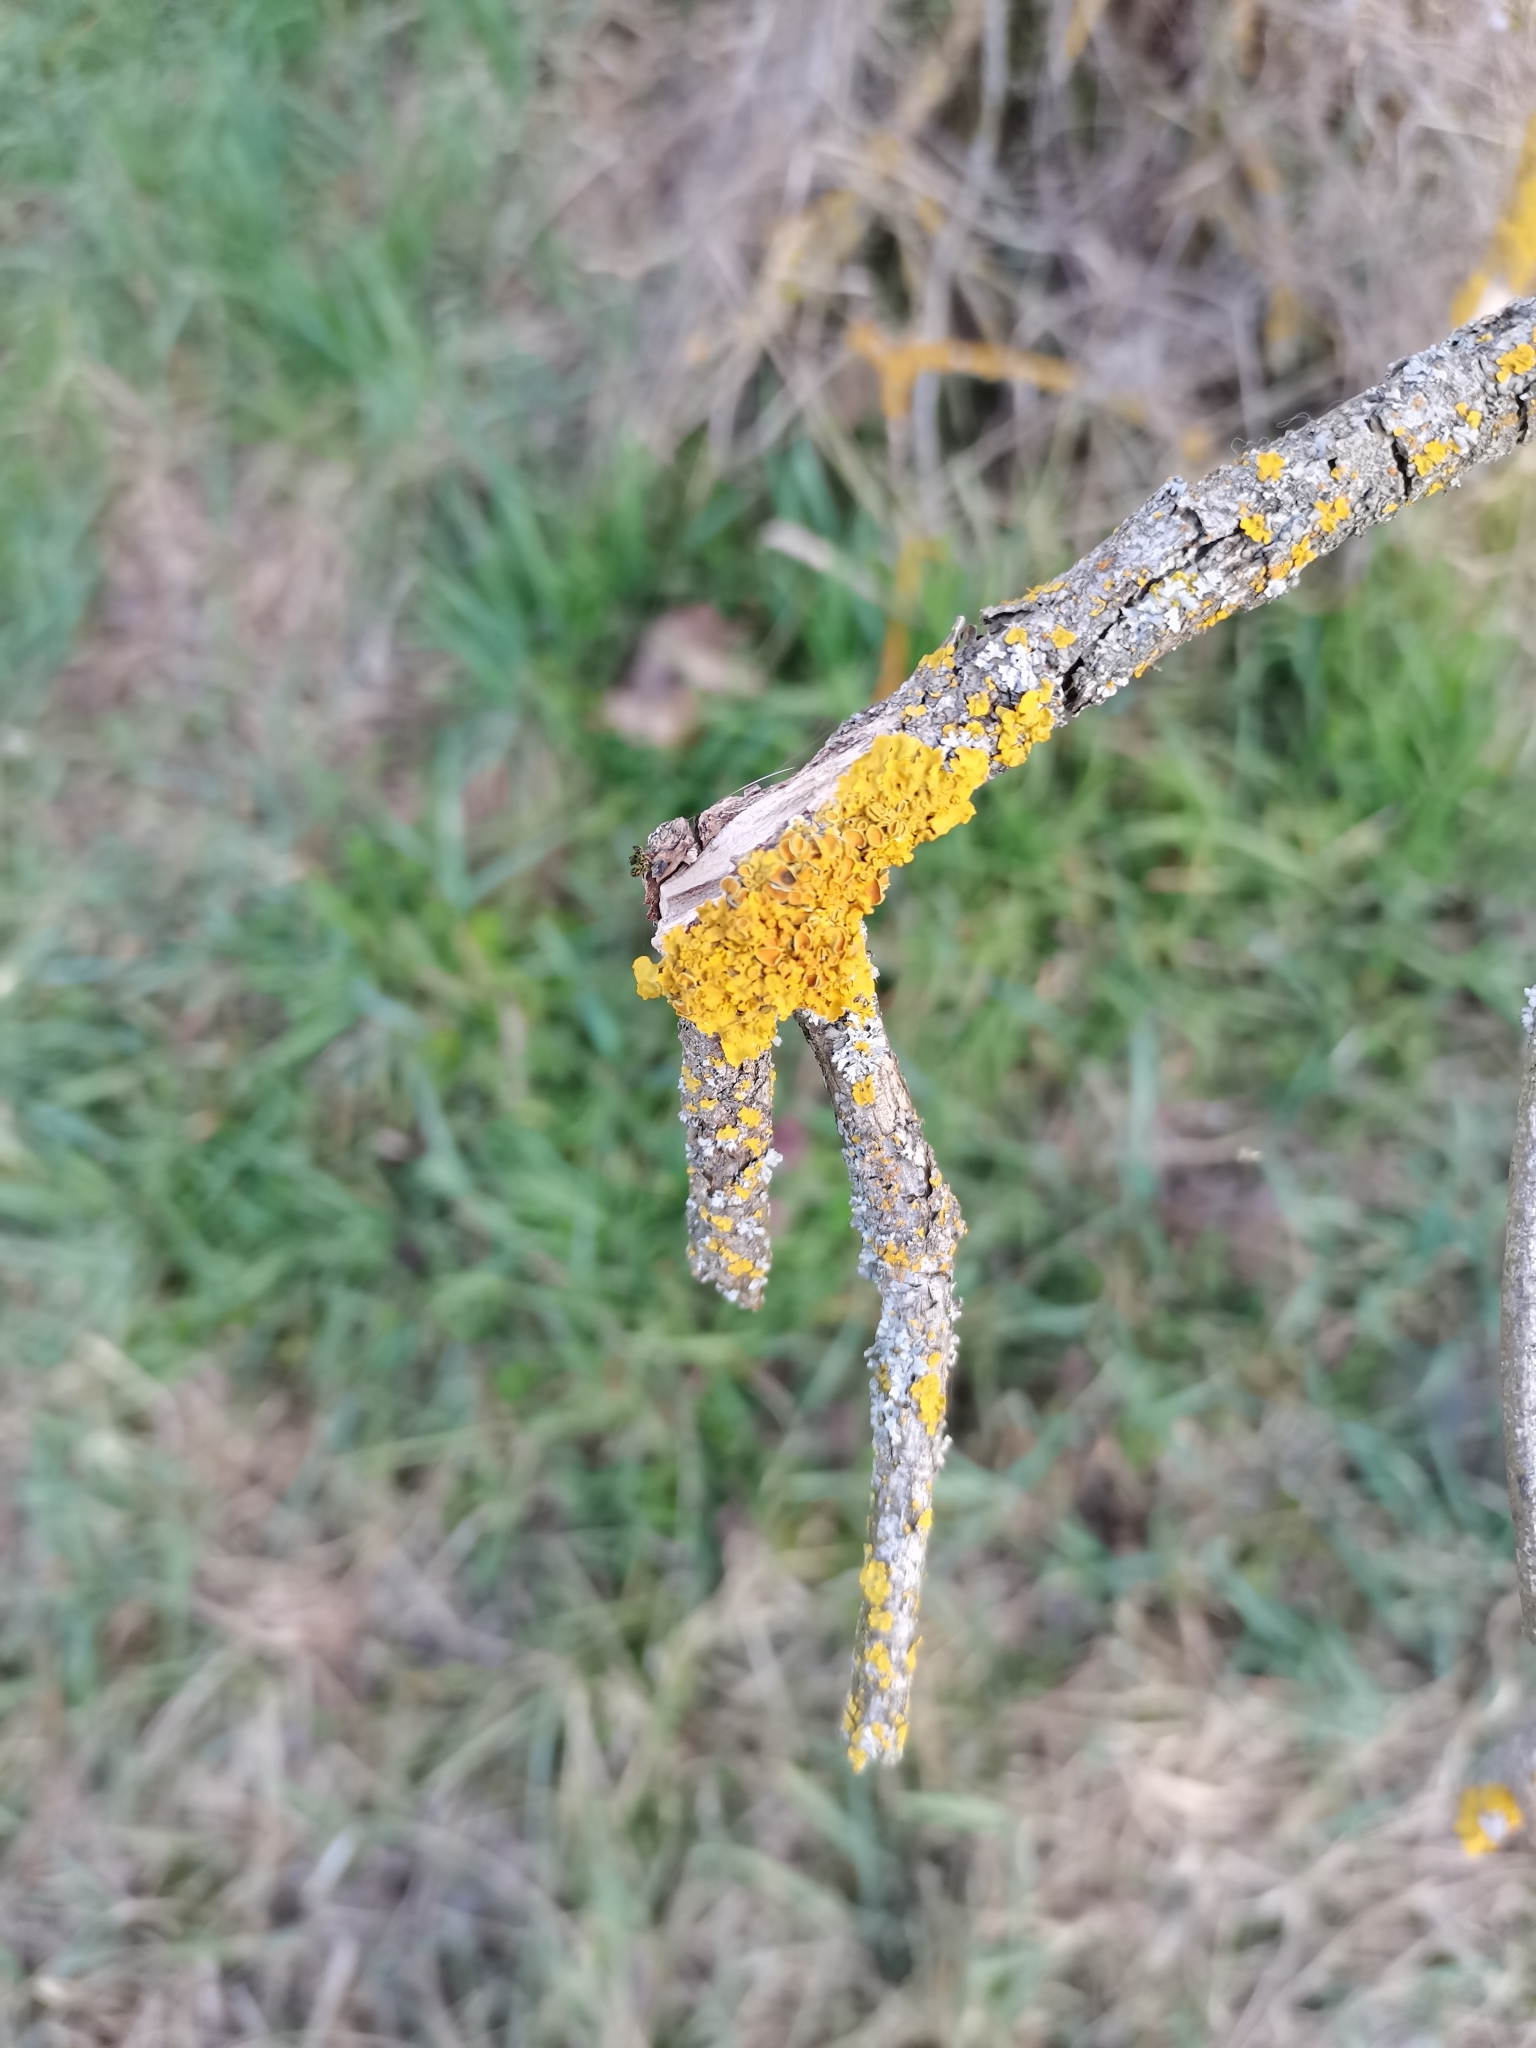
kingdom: Fungi
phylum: Ascomycota
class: Lecanoromycetes
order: Teloschistales
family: Teloschistaceae
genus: Xanthoria
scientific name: Xanthoria parietina
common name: Common orange lichen
